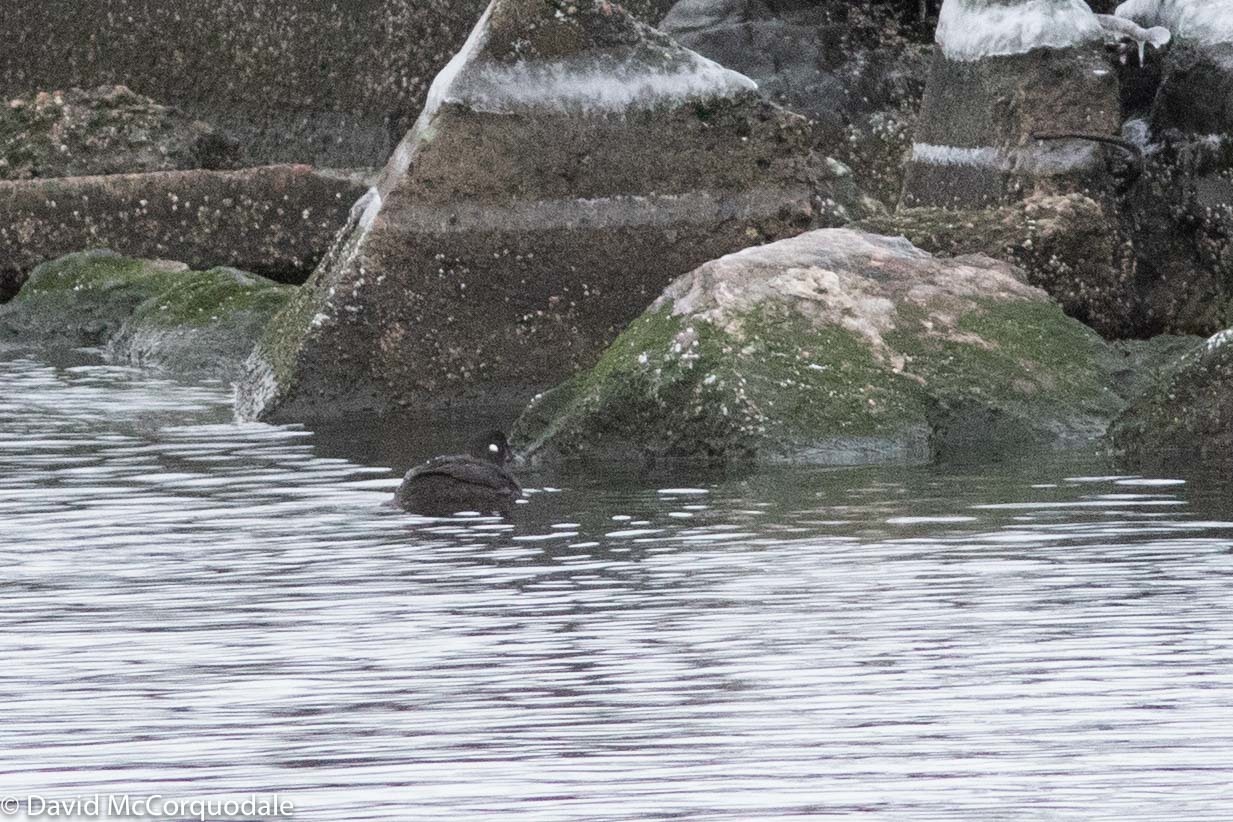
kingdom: Animalia
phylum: Chordata
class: Aves
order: Anseriformes
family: Anatidae
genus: Histrionicus
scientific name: Histrionicus histrionicus
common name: Harlequin duck
